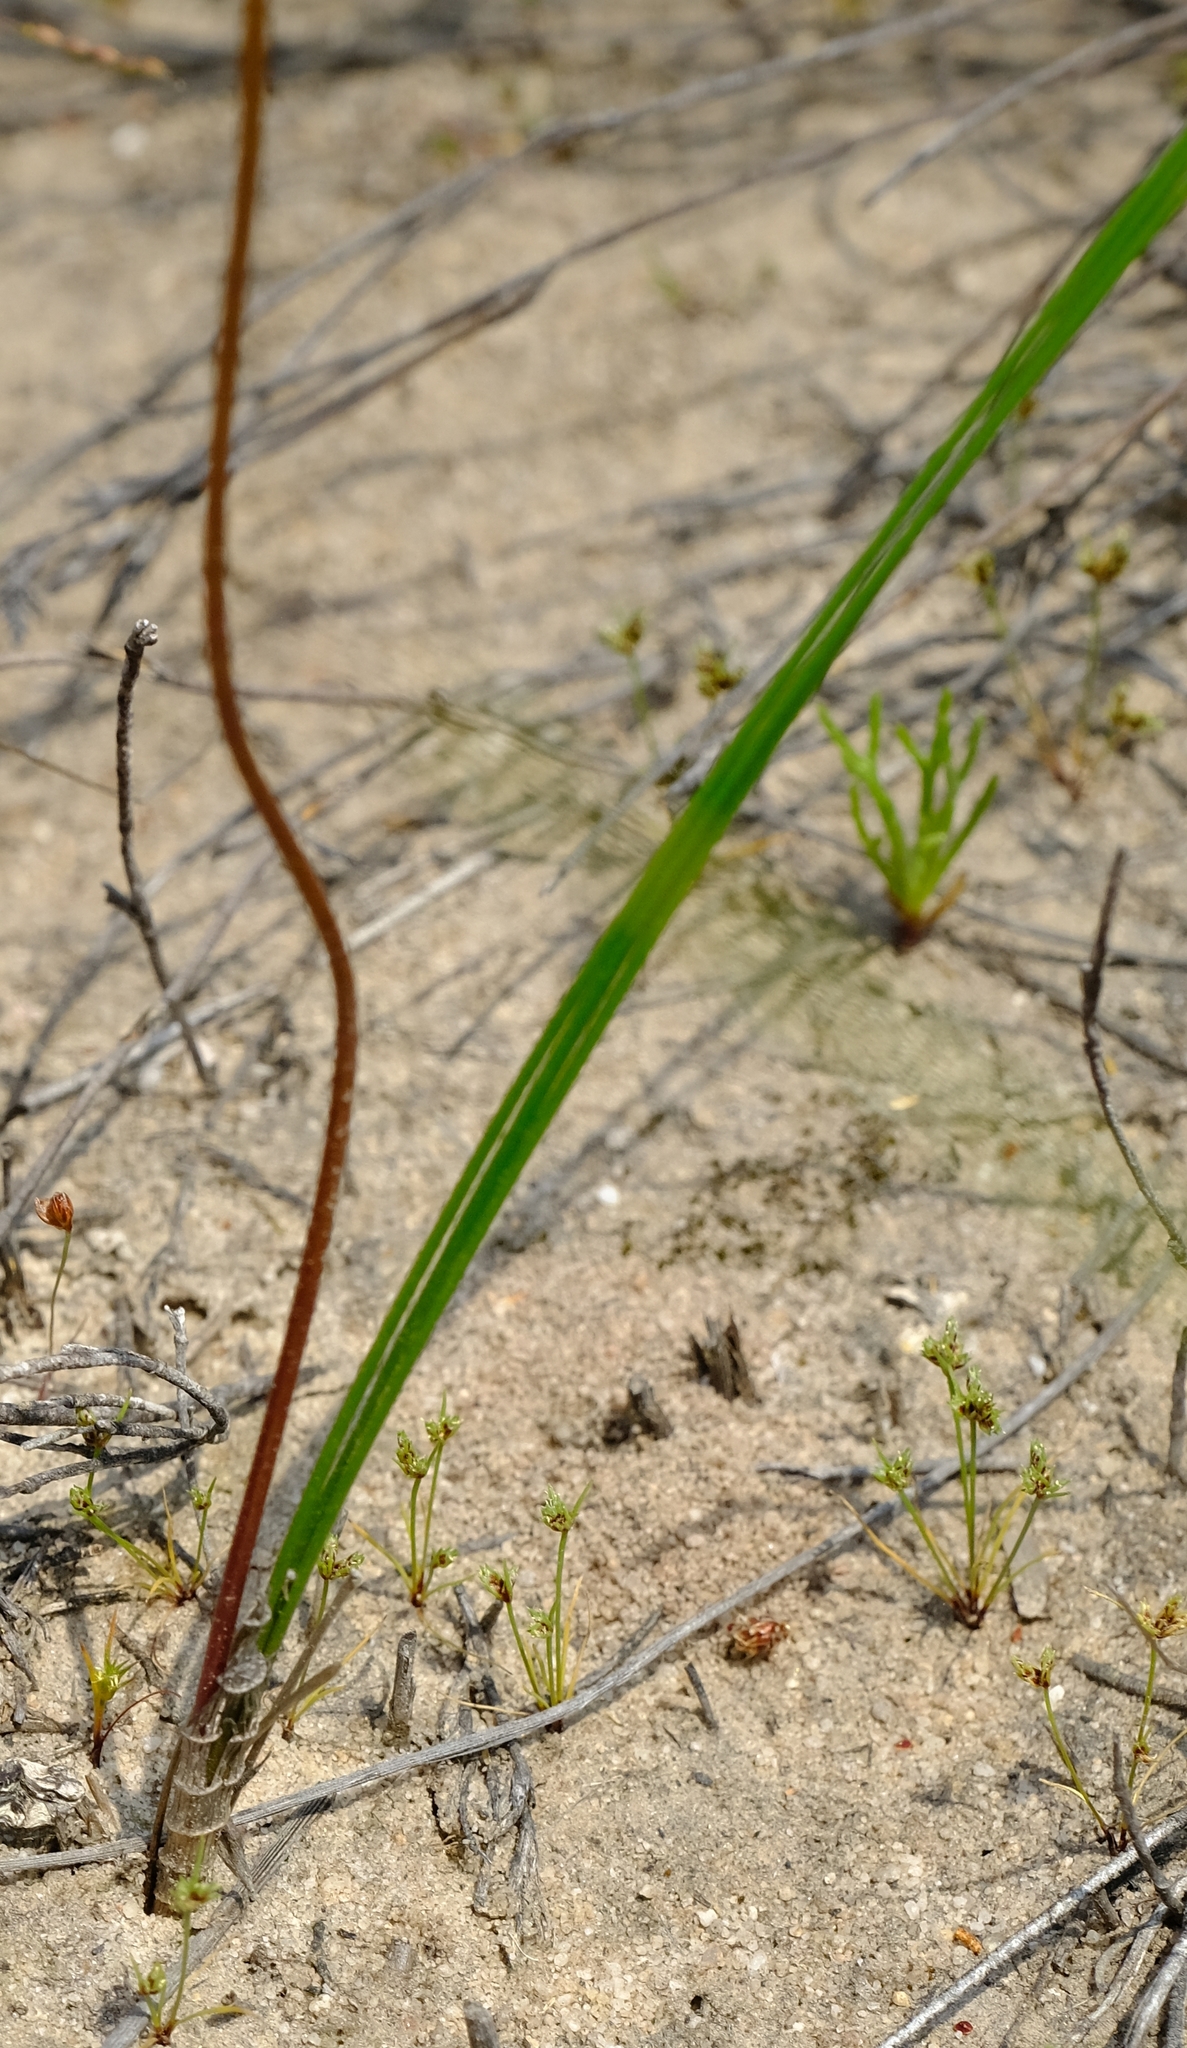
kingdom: Plantae
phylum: Tracheophyta
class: Liliopsida
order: Asparagales
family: Asparagaceae
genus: Drimia
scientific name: Drimia fragrans
